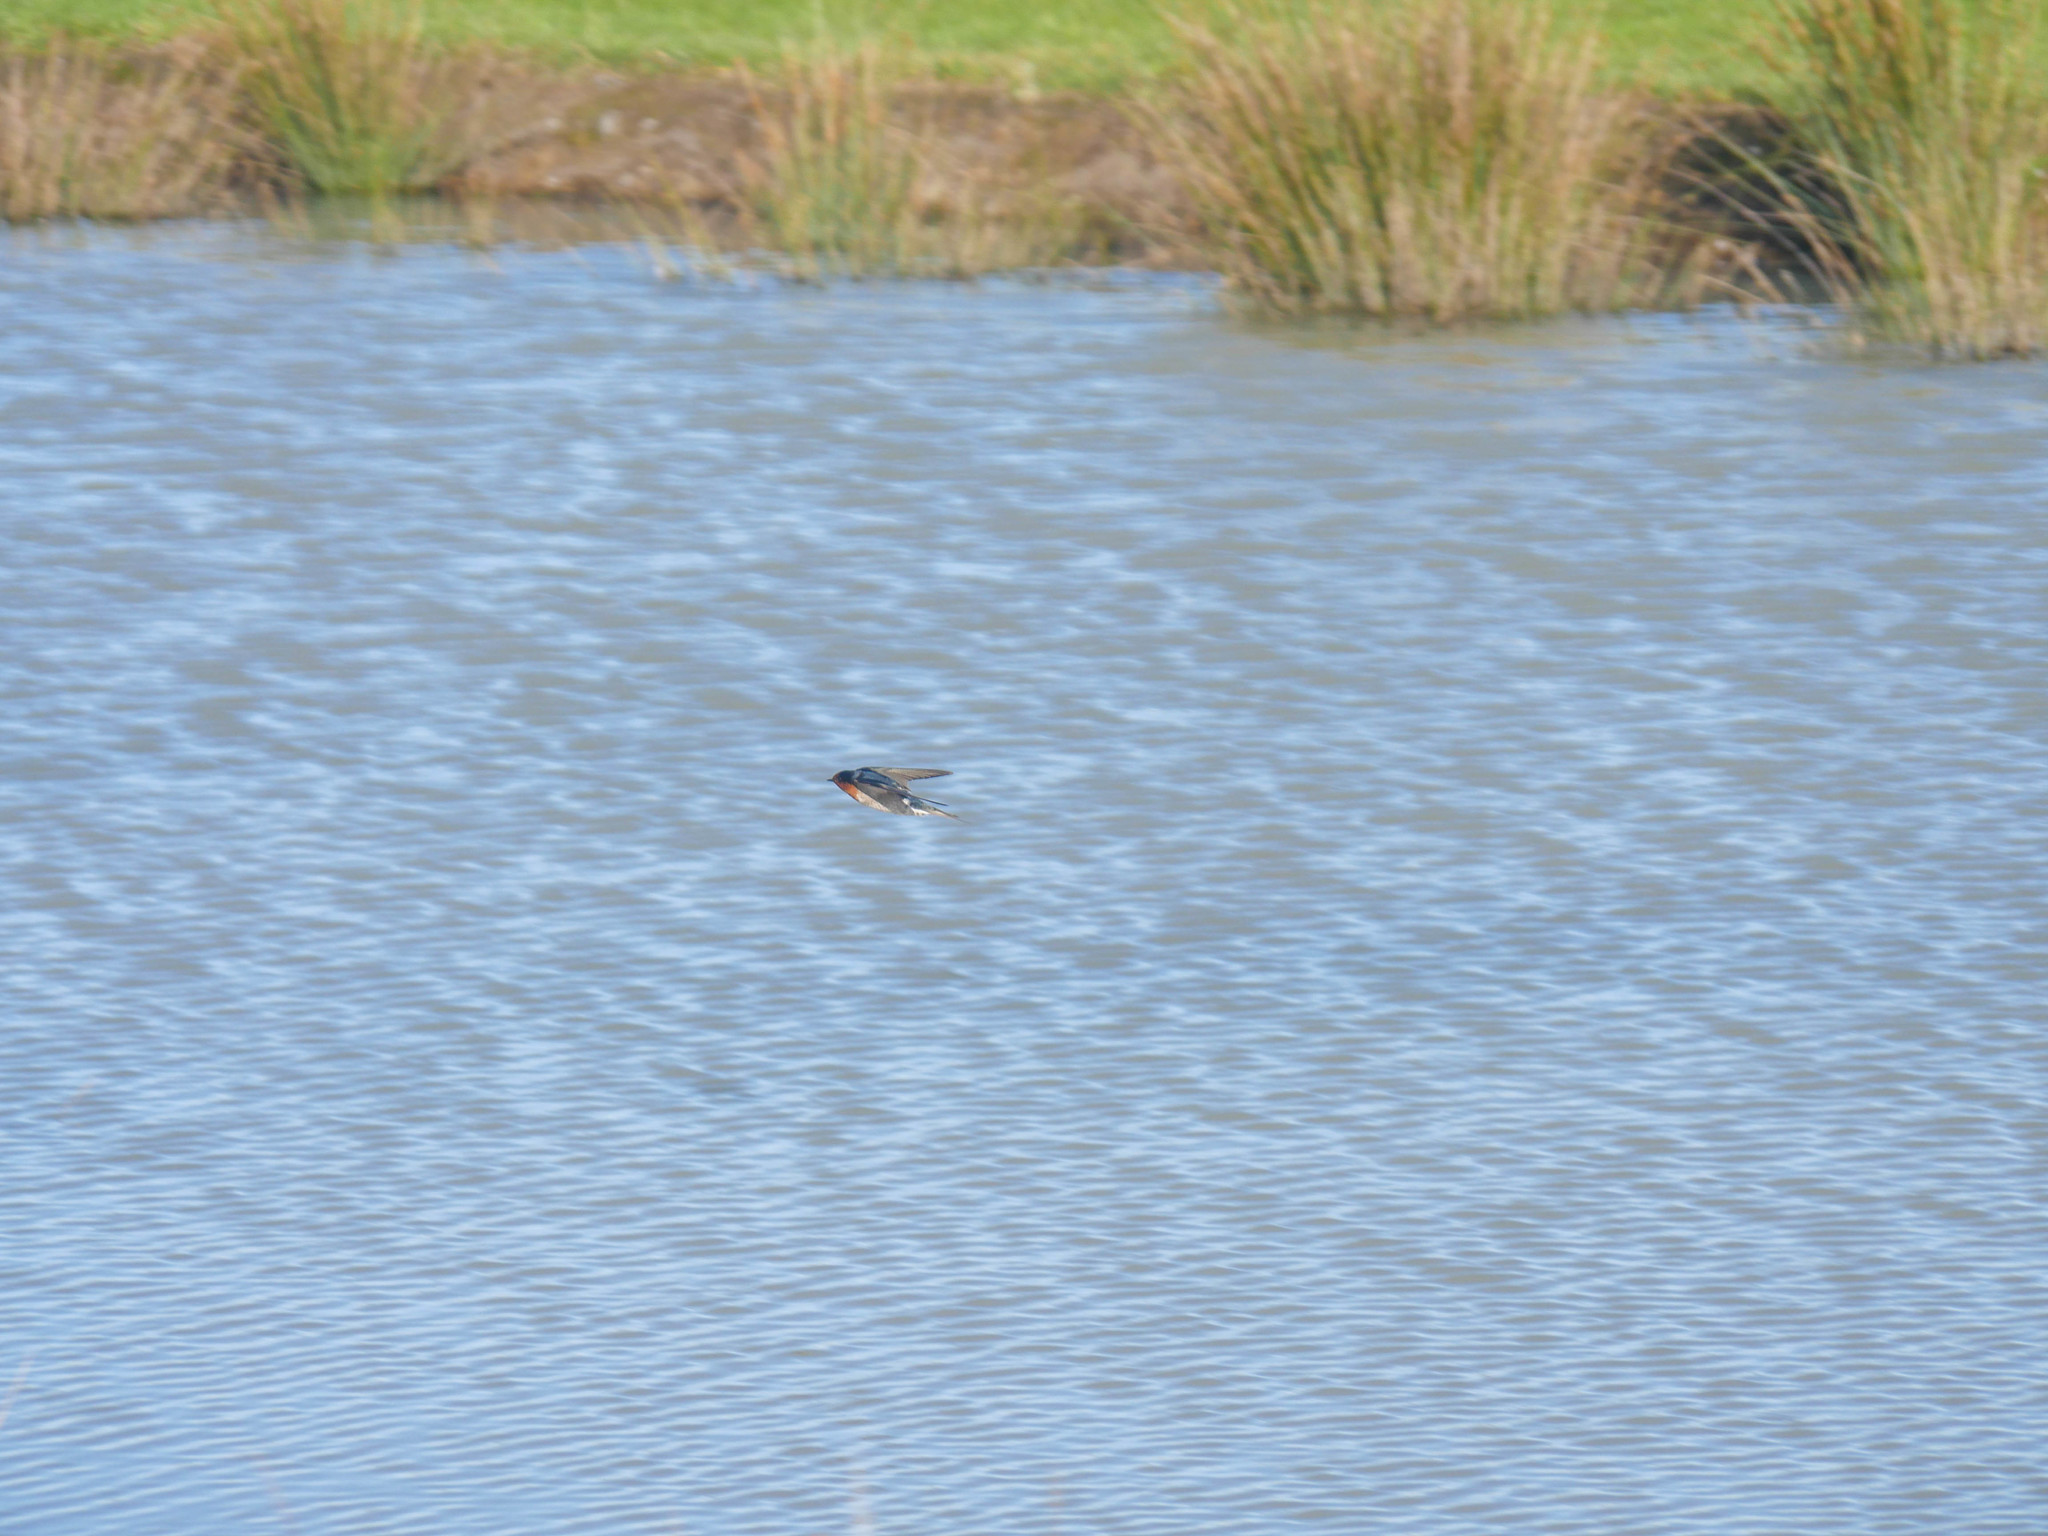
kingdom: Animalia
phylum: Chordata
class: Aves
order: Passeriformes
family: Hirundinidae
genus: Hirundo
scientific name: Hirundo neoxena
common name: Welcome swallow
